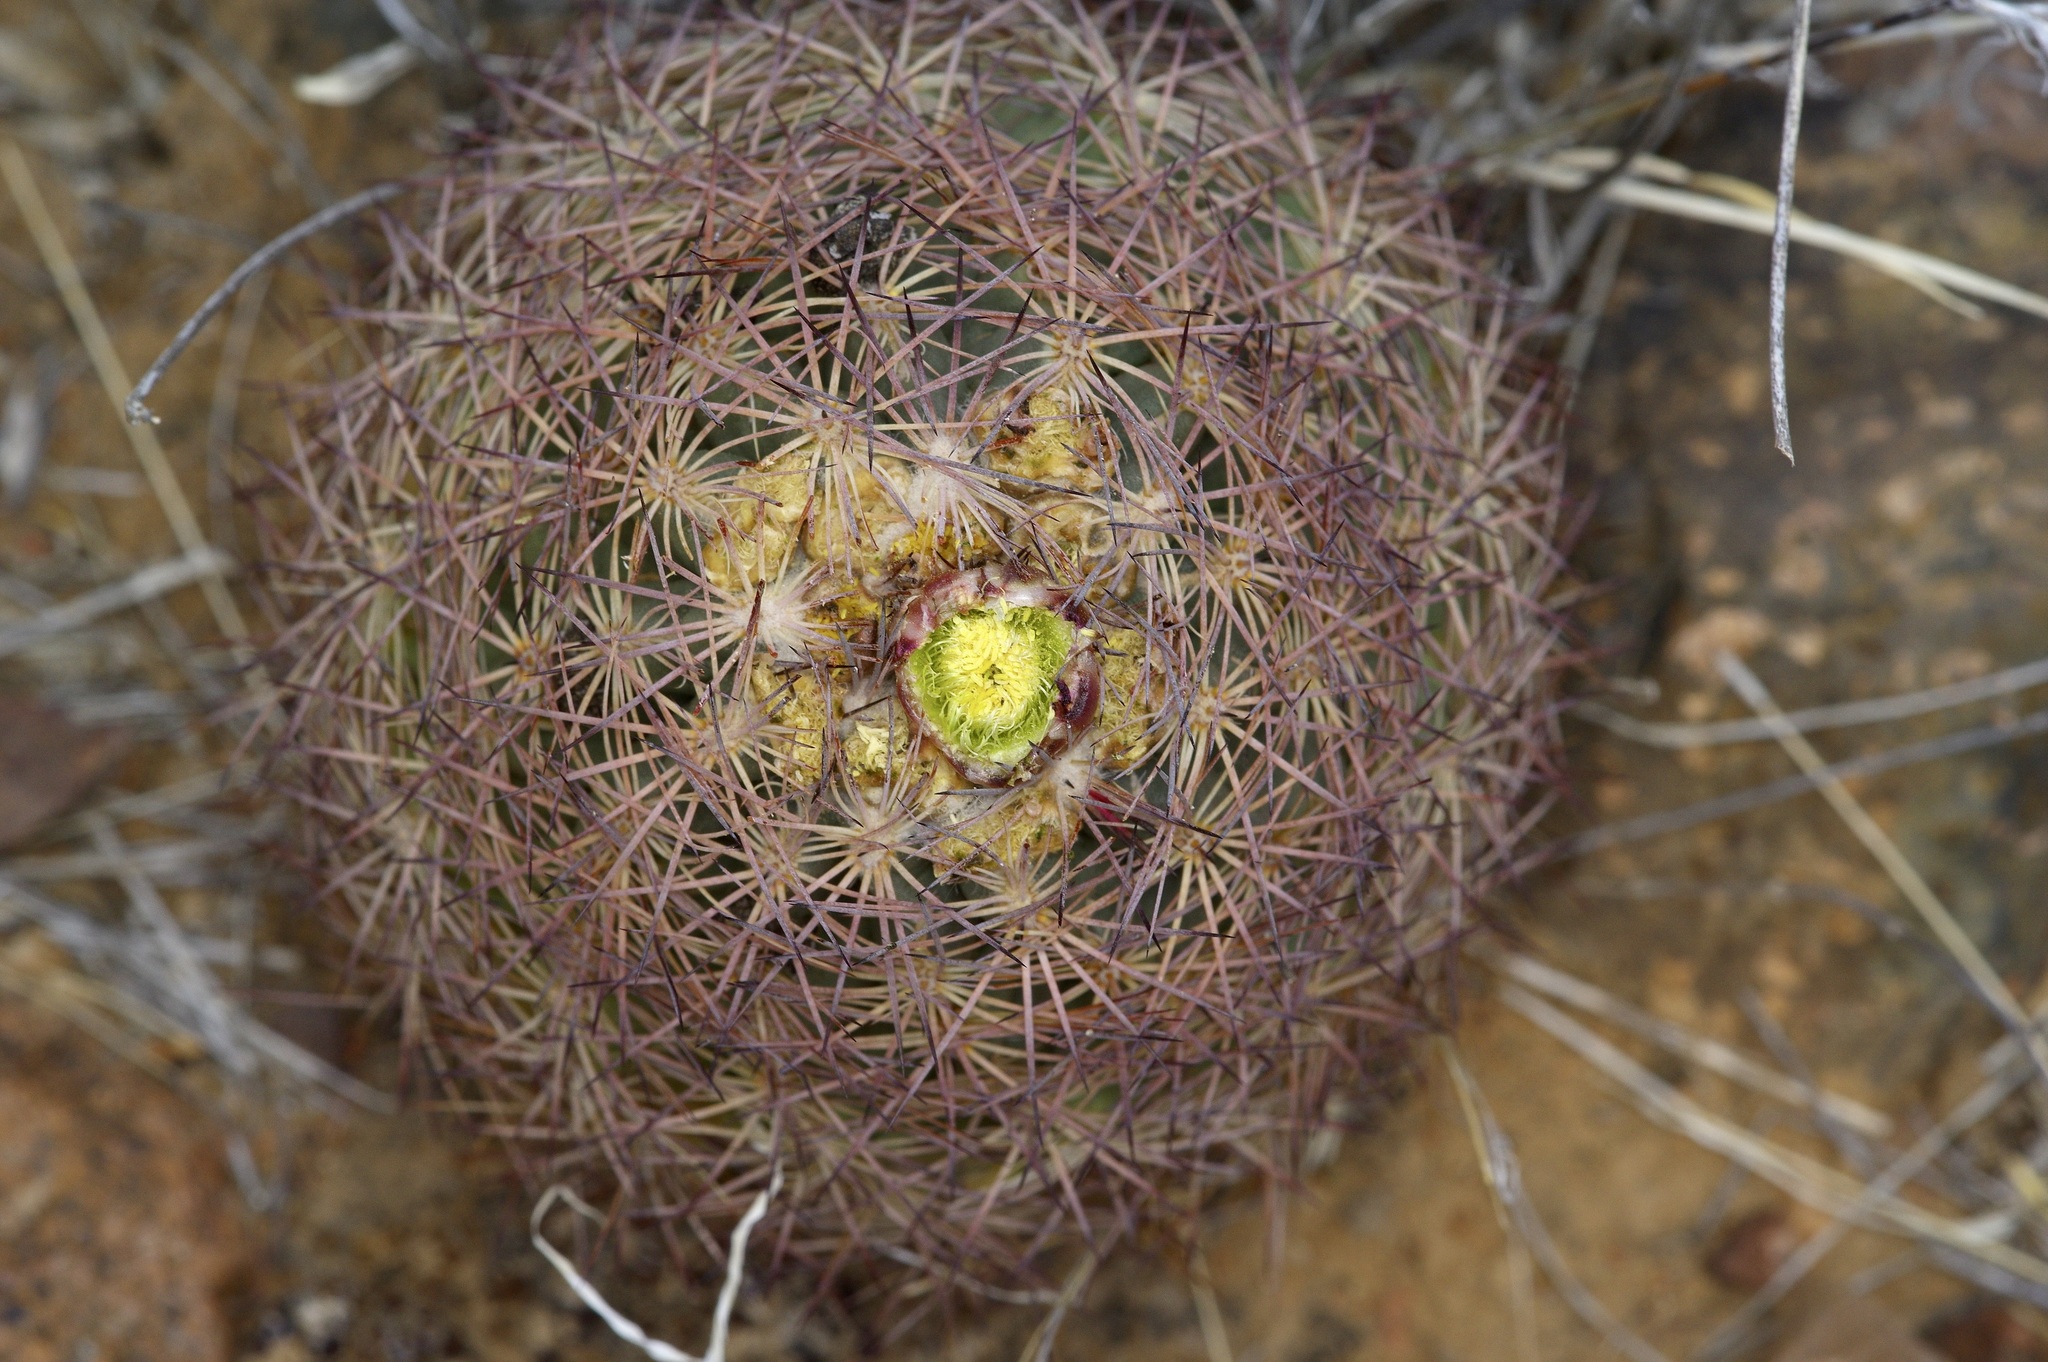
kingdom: Plantae
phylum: Tracheophyta
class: Magnoliopsida
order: Caryophyllales
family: Cactaceae
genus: Sclerocactus
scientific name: Sclerocactus intertextus
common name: White fish-hook cactus
